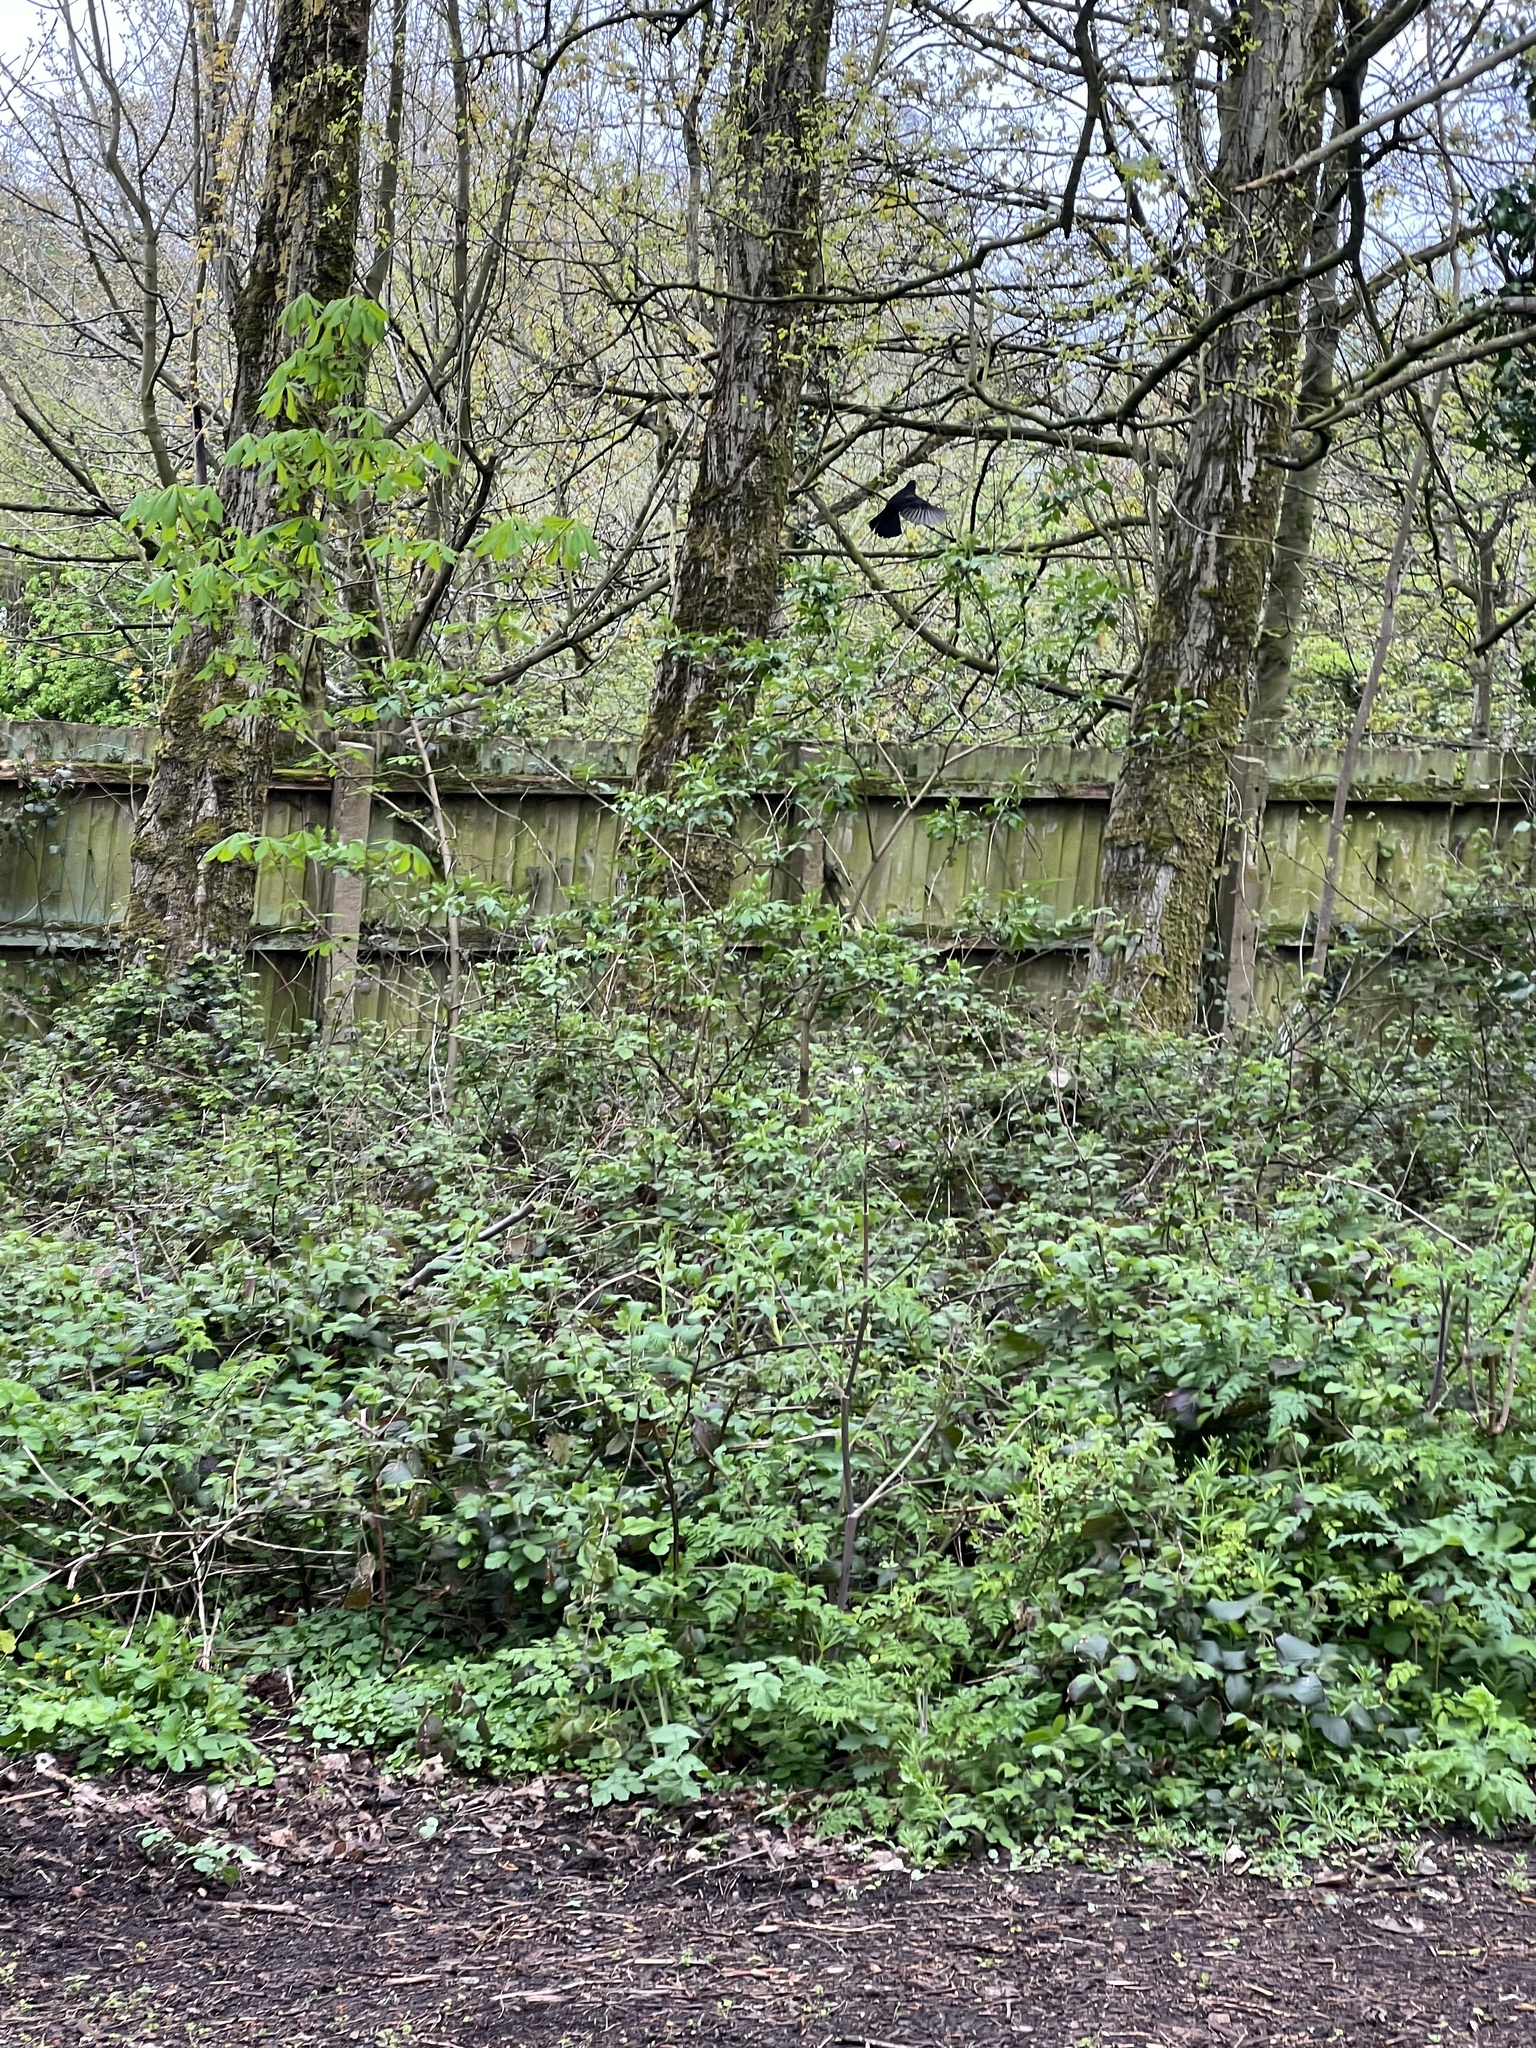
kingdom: Animalia
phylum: Chordata
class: Aves
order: Passeriformes
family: Turdidae
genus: Turdus
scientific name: Turdus merula
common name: Common blackbird
